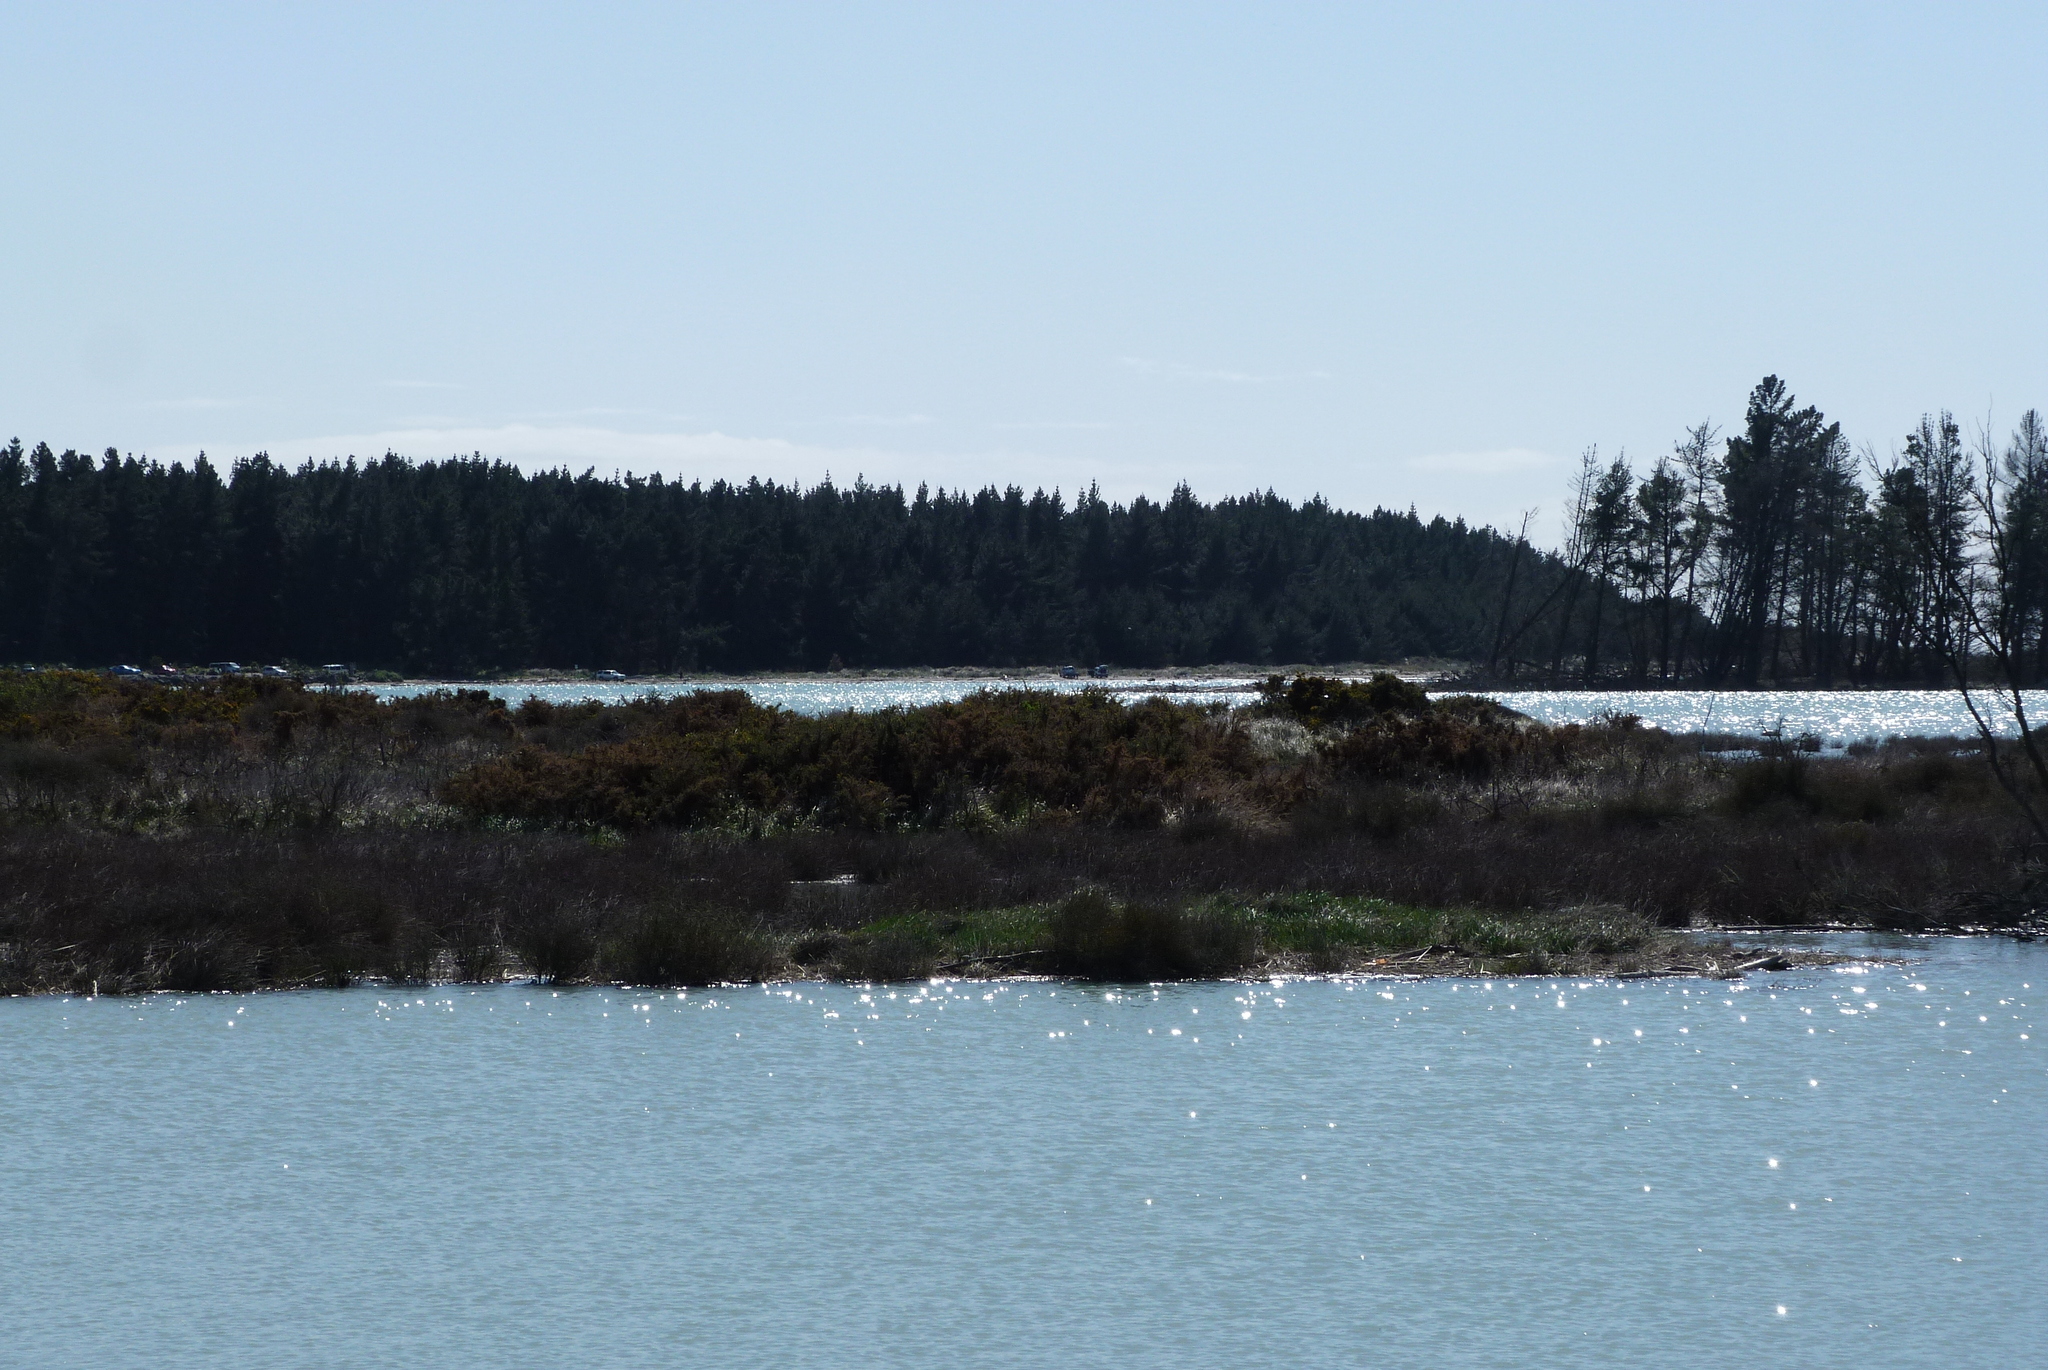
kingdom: Plantae
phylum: Tracheophyta
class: Magnoliopsida
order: Fabales
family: Fabaceae
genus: Ulex
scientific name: Ulex europaeus
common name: Common gorse
